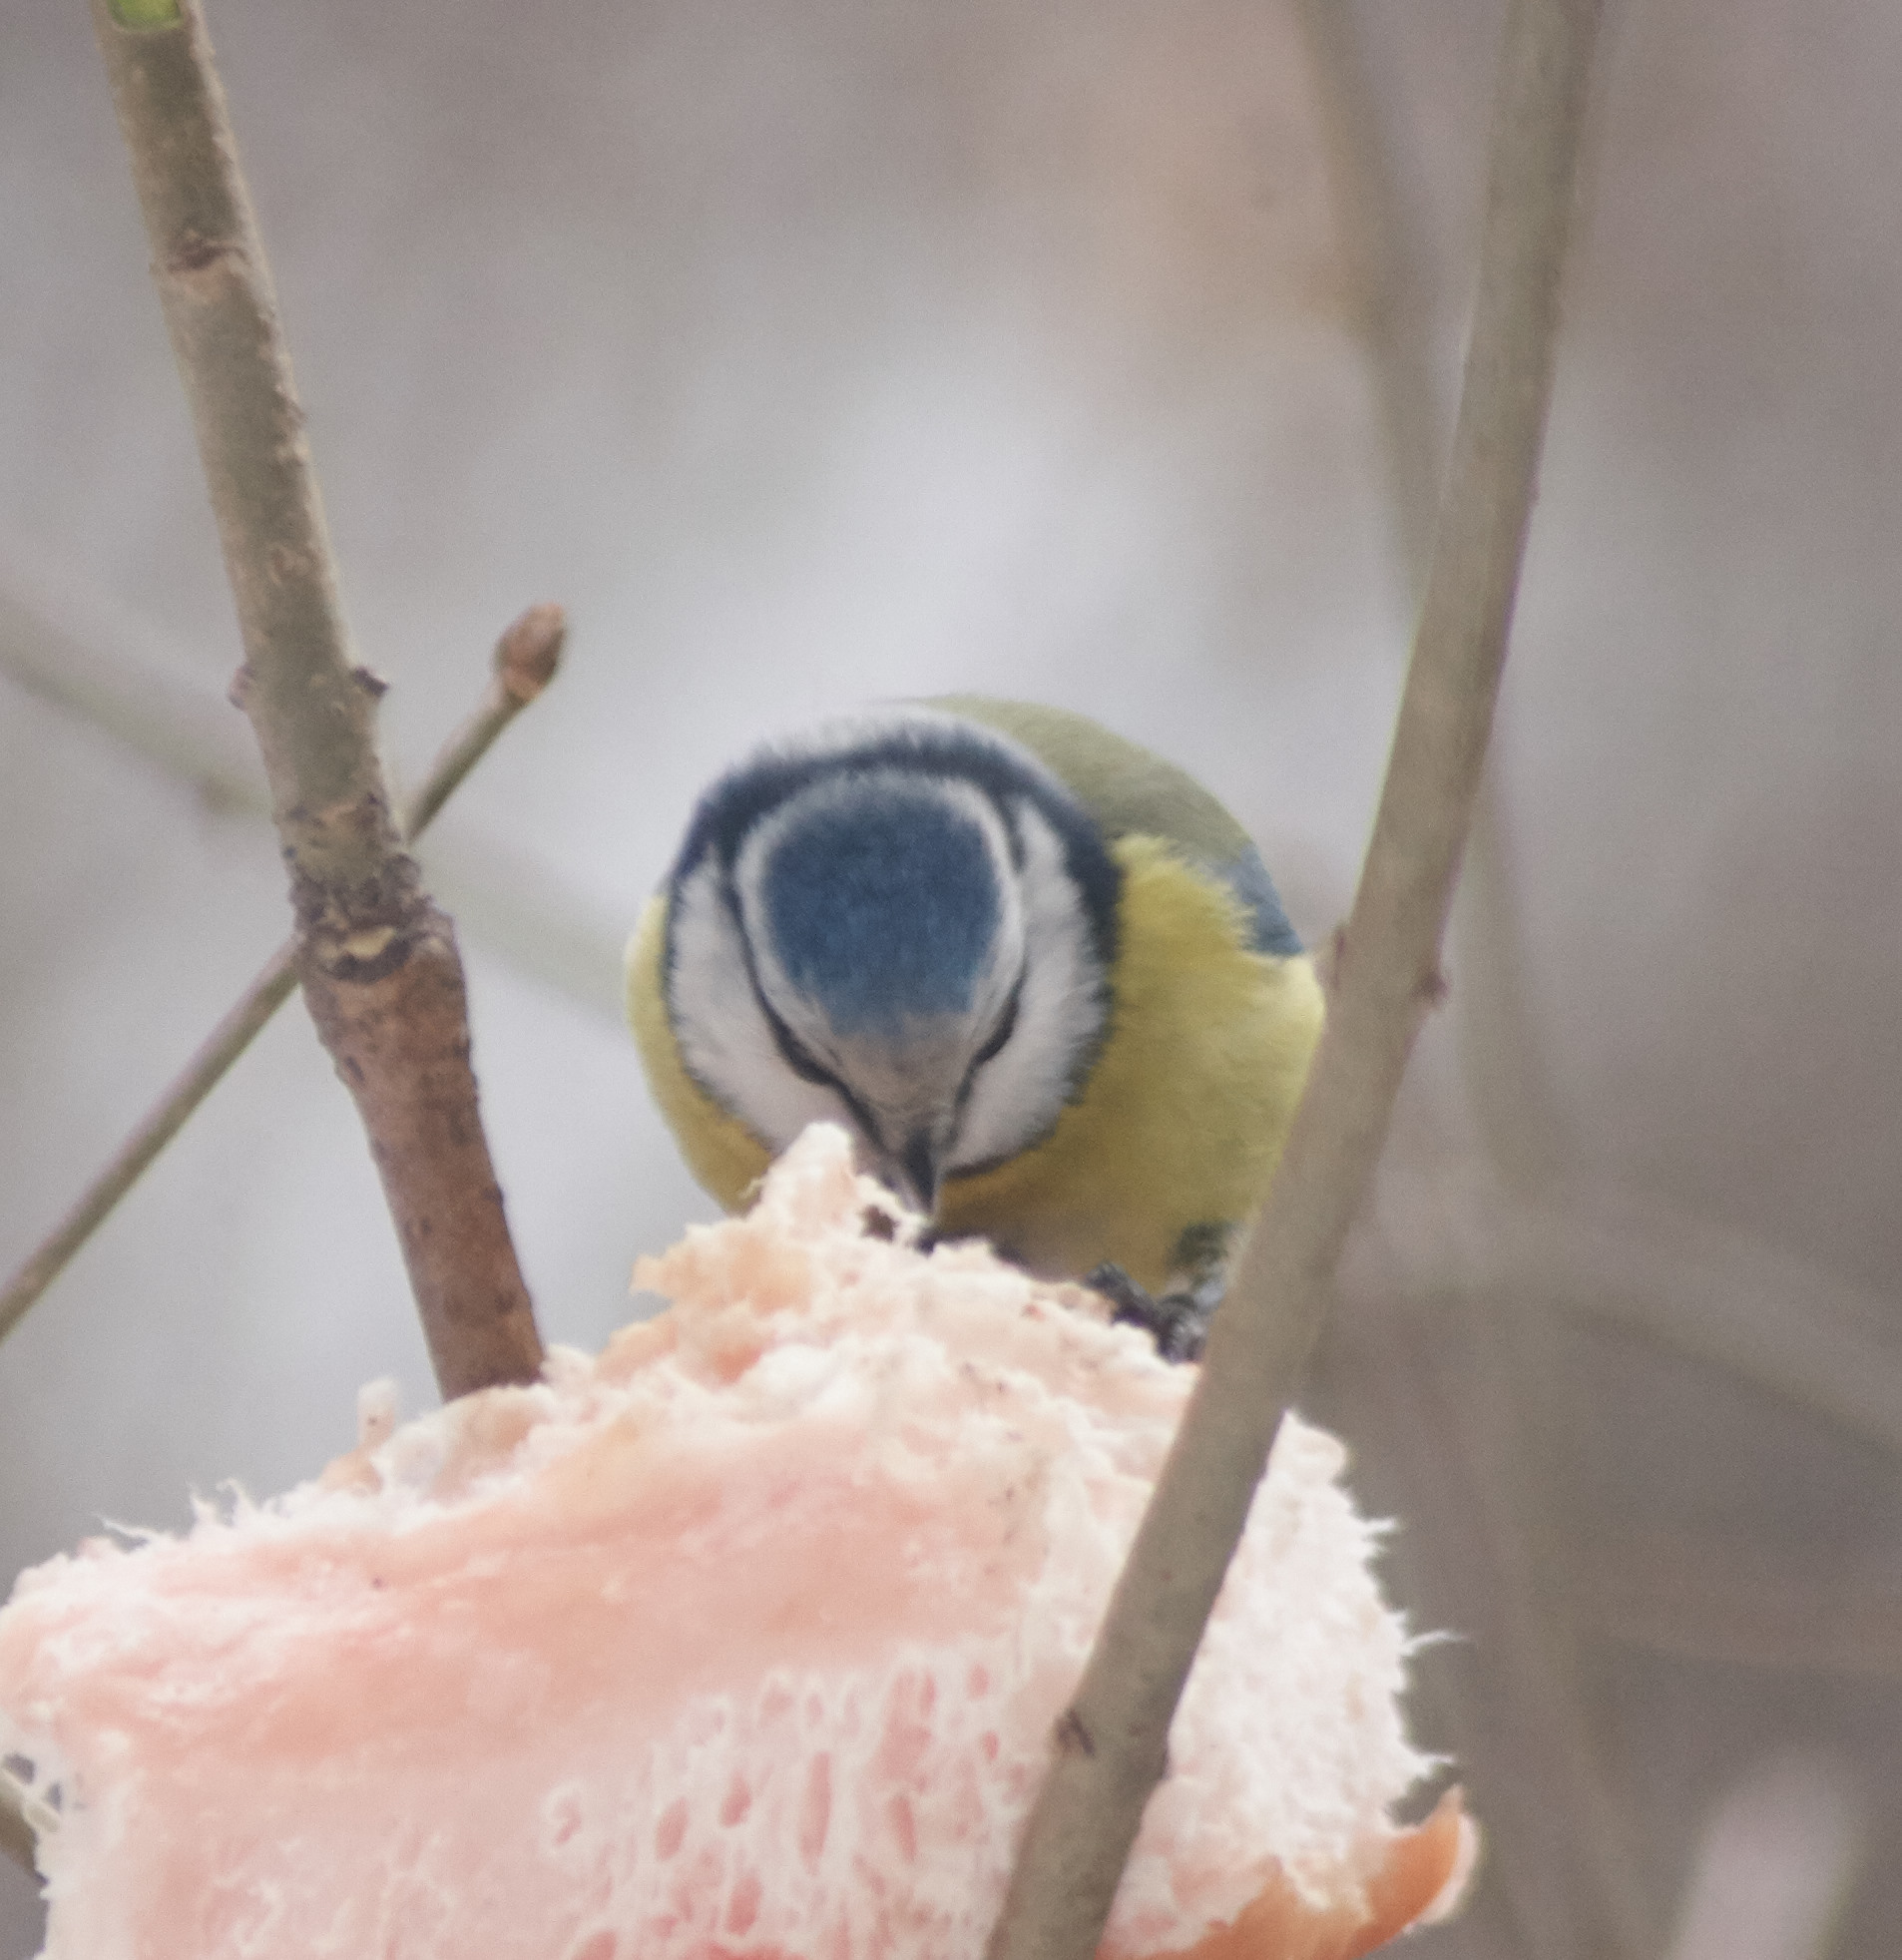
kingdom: Animalia
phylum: Chordata
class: Aves
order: Passeriformes
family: Paridae
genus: Cyanistes
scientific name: Cyanistes caeruleus
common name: Eurasian blue tit
